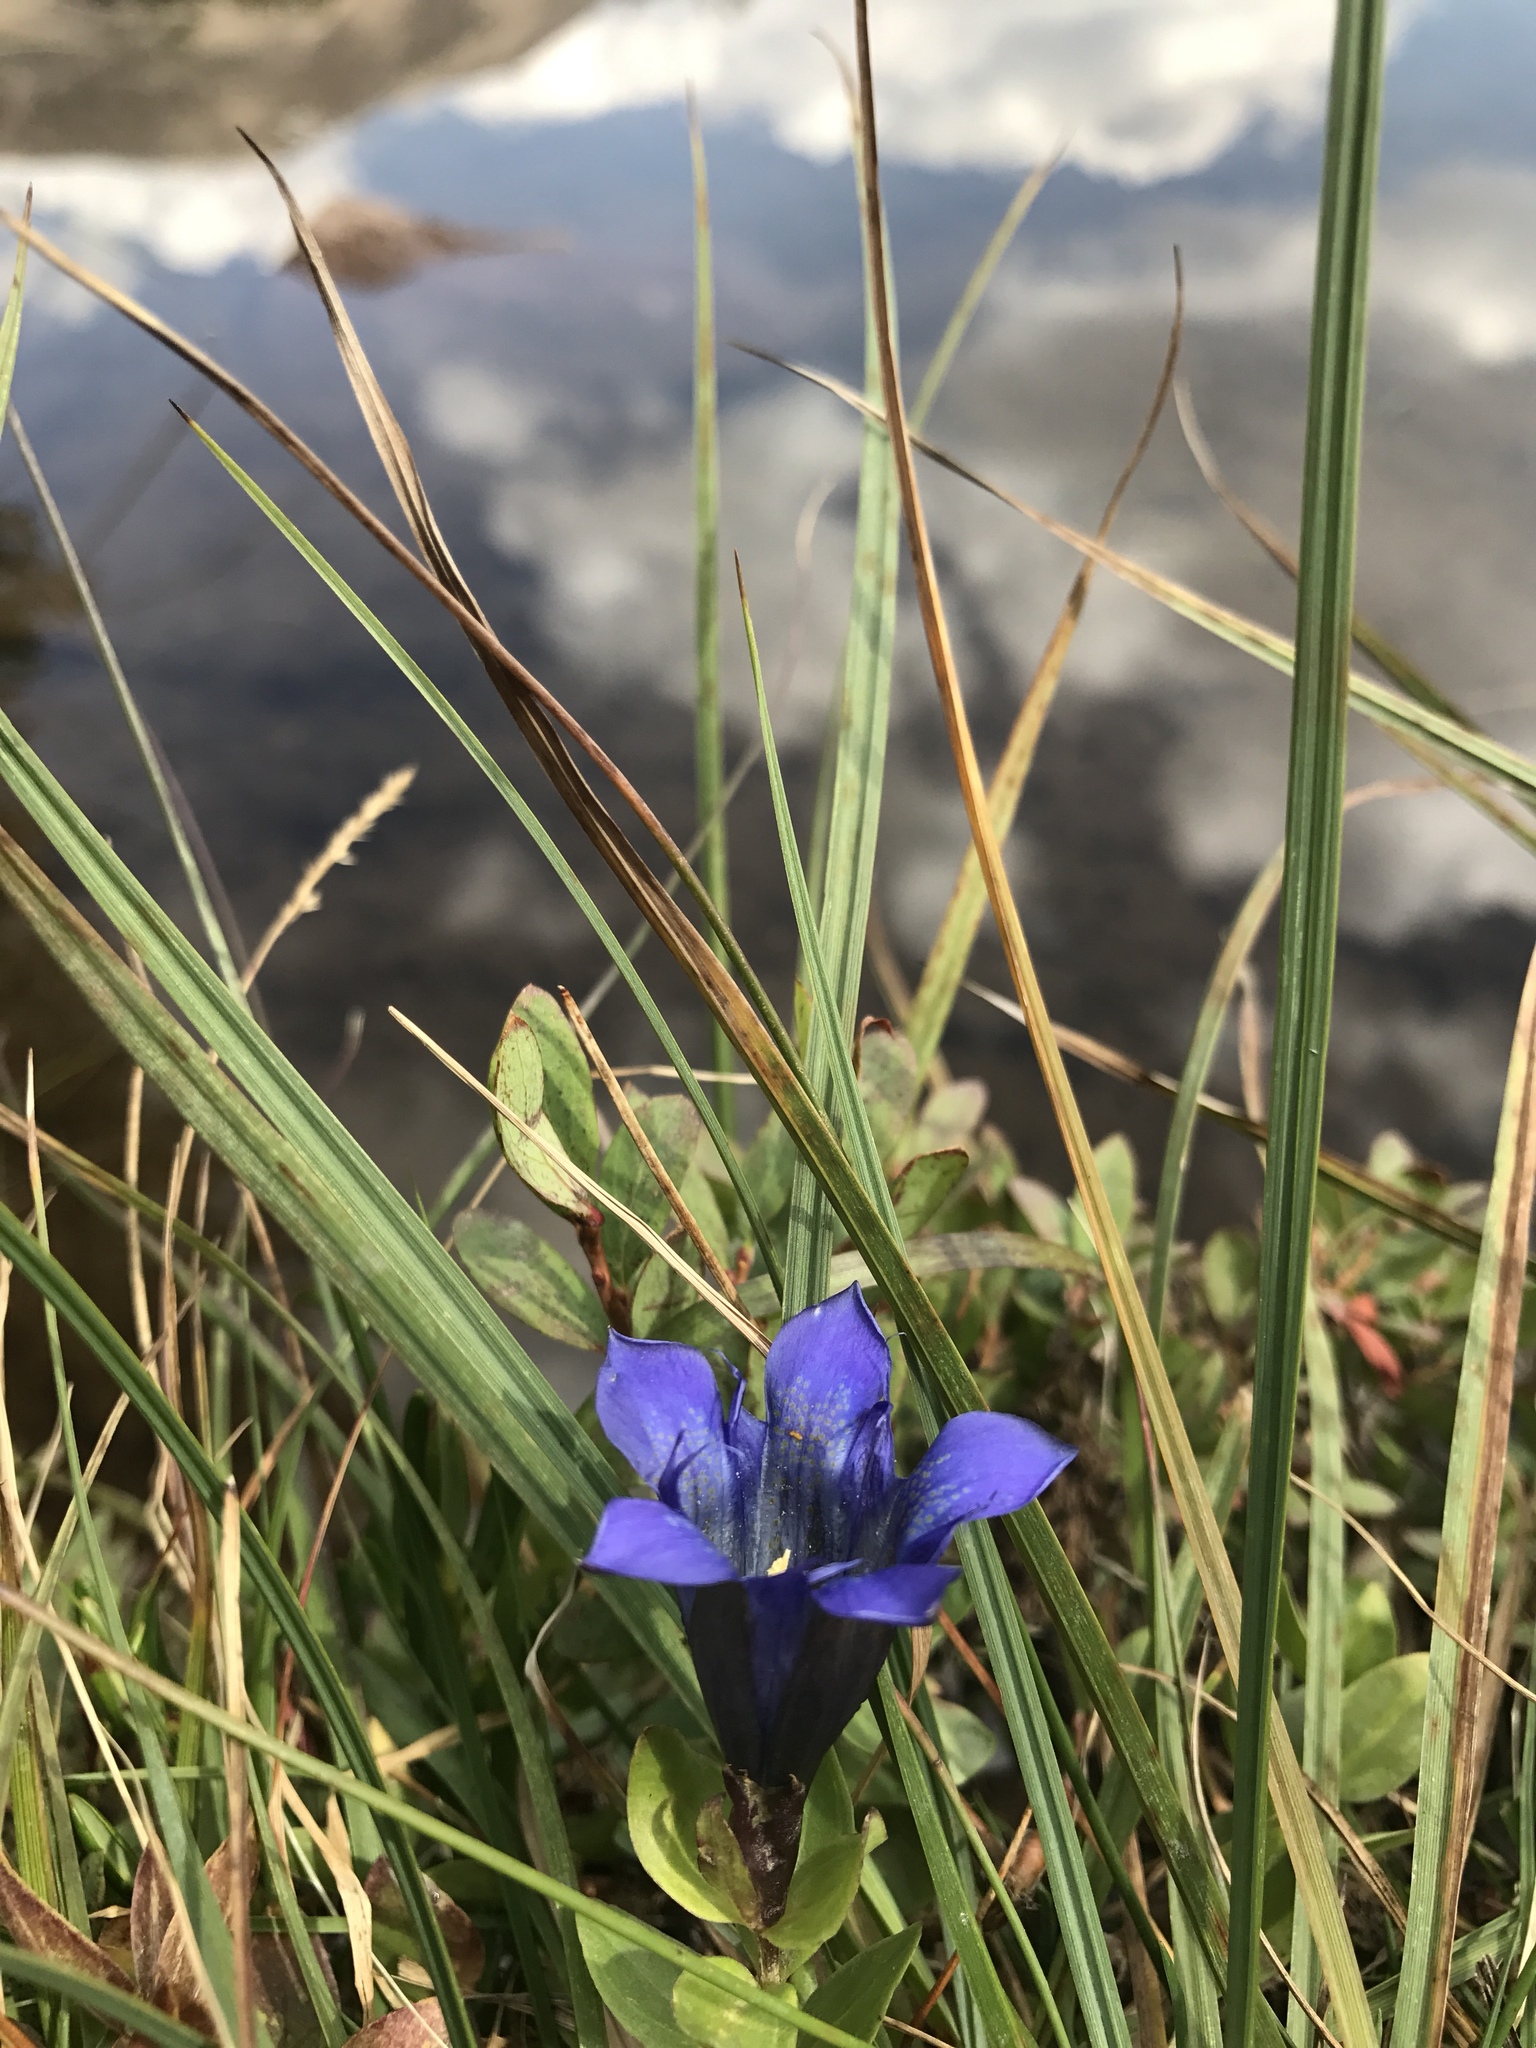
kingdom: Plantae
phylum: Tracheophyta
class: Magnoliopsida
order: Gentianales
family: Gentianaceae
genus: Gentiana
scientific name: Gentiana calycosa
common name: Rainier pleated gentian
